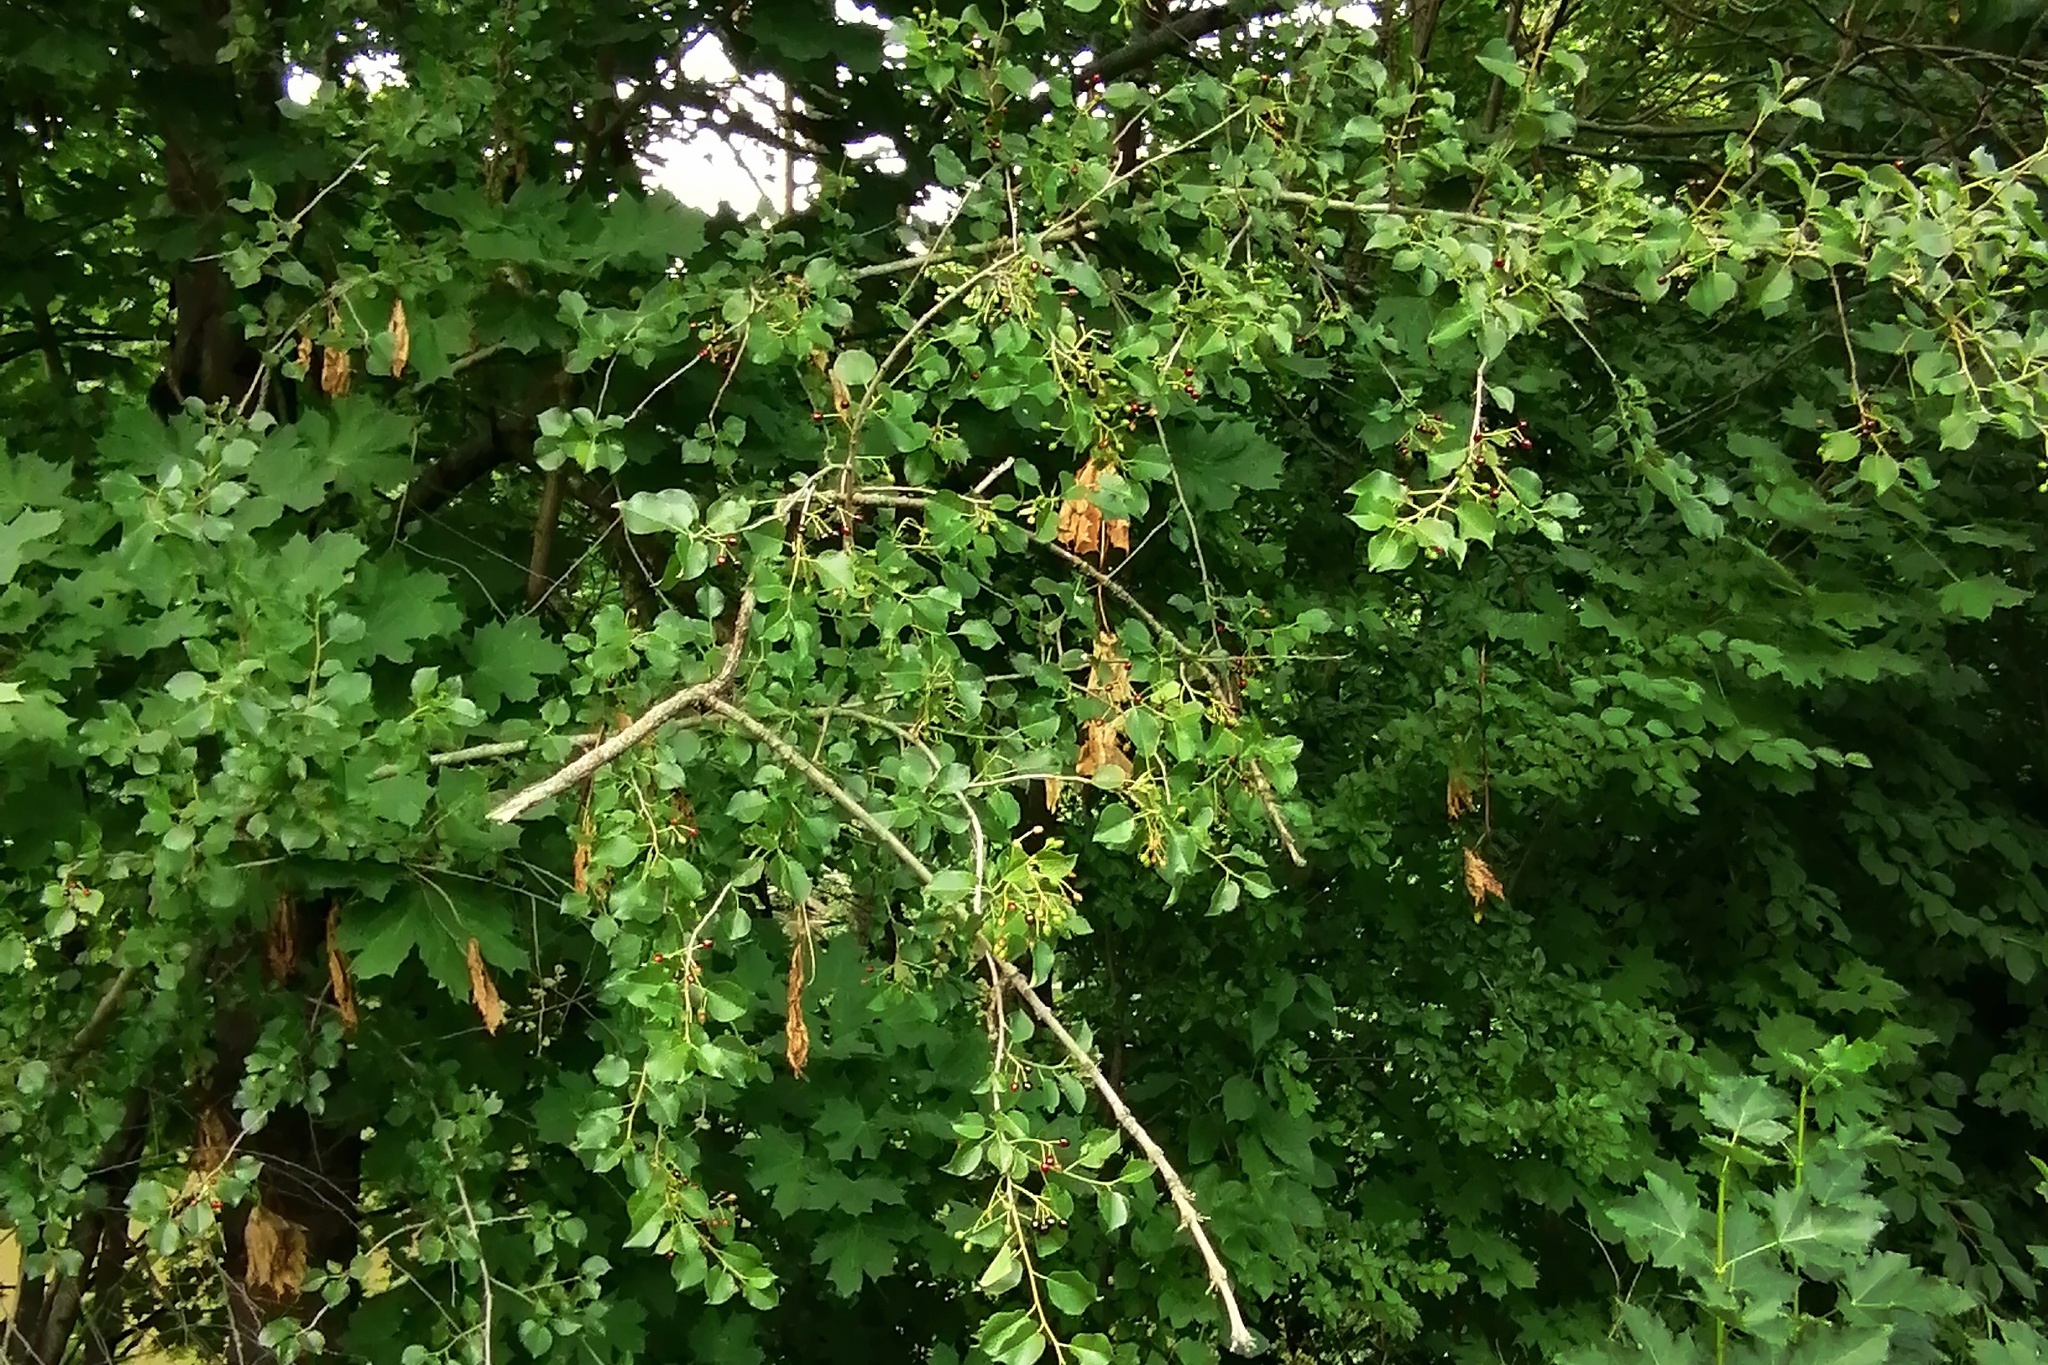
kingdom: Plantae
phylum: Tracheophyta
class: Magnoliopsida
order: Rosales
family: Rosaceae
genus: Prunus
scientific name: Prunus mahaleb
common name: Mahaleb cherry
